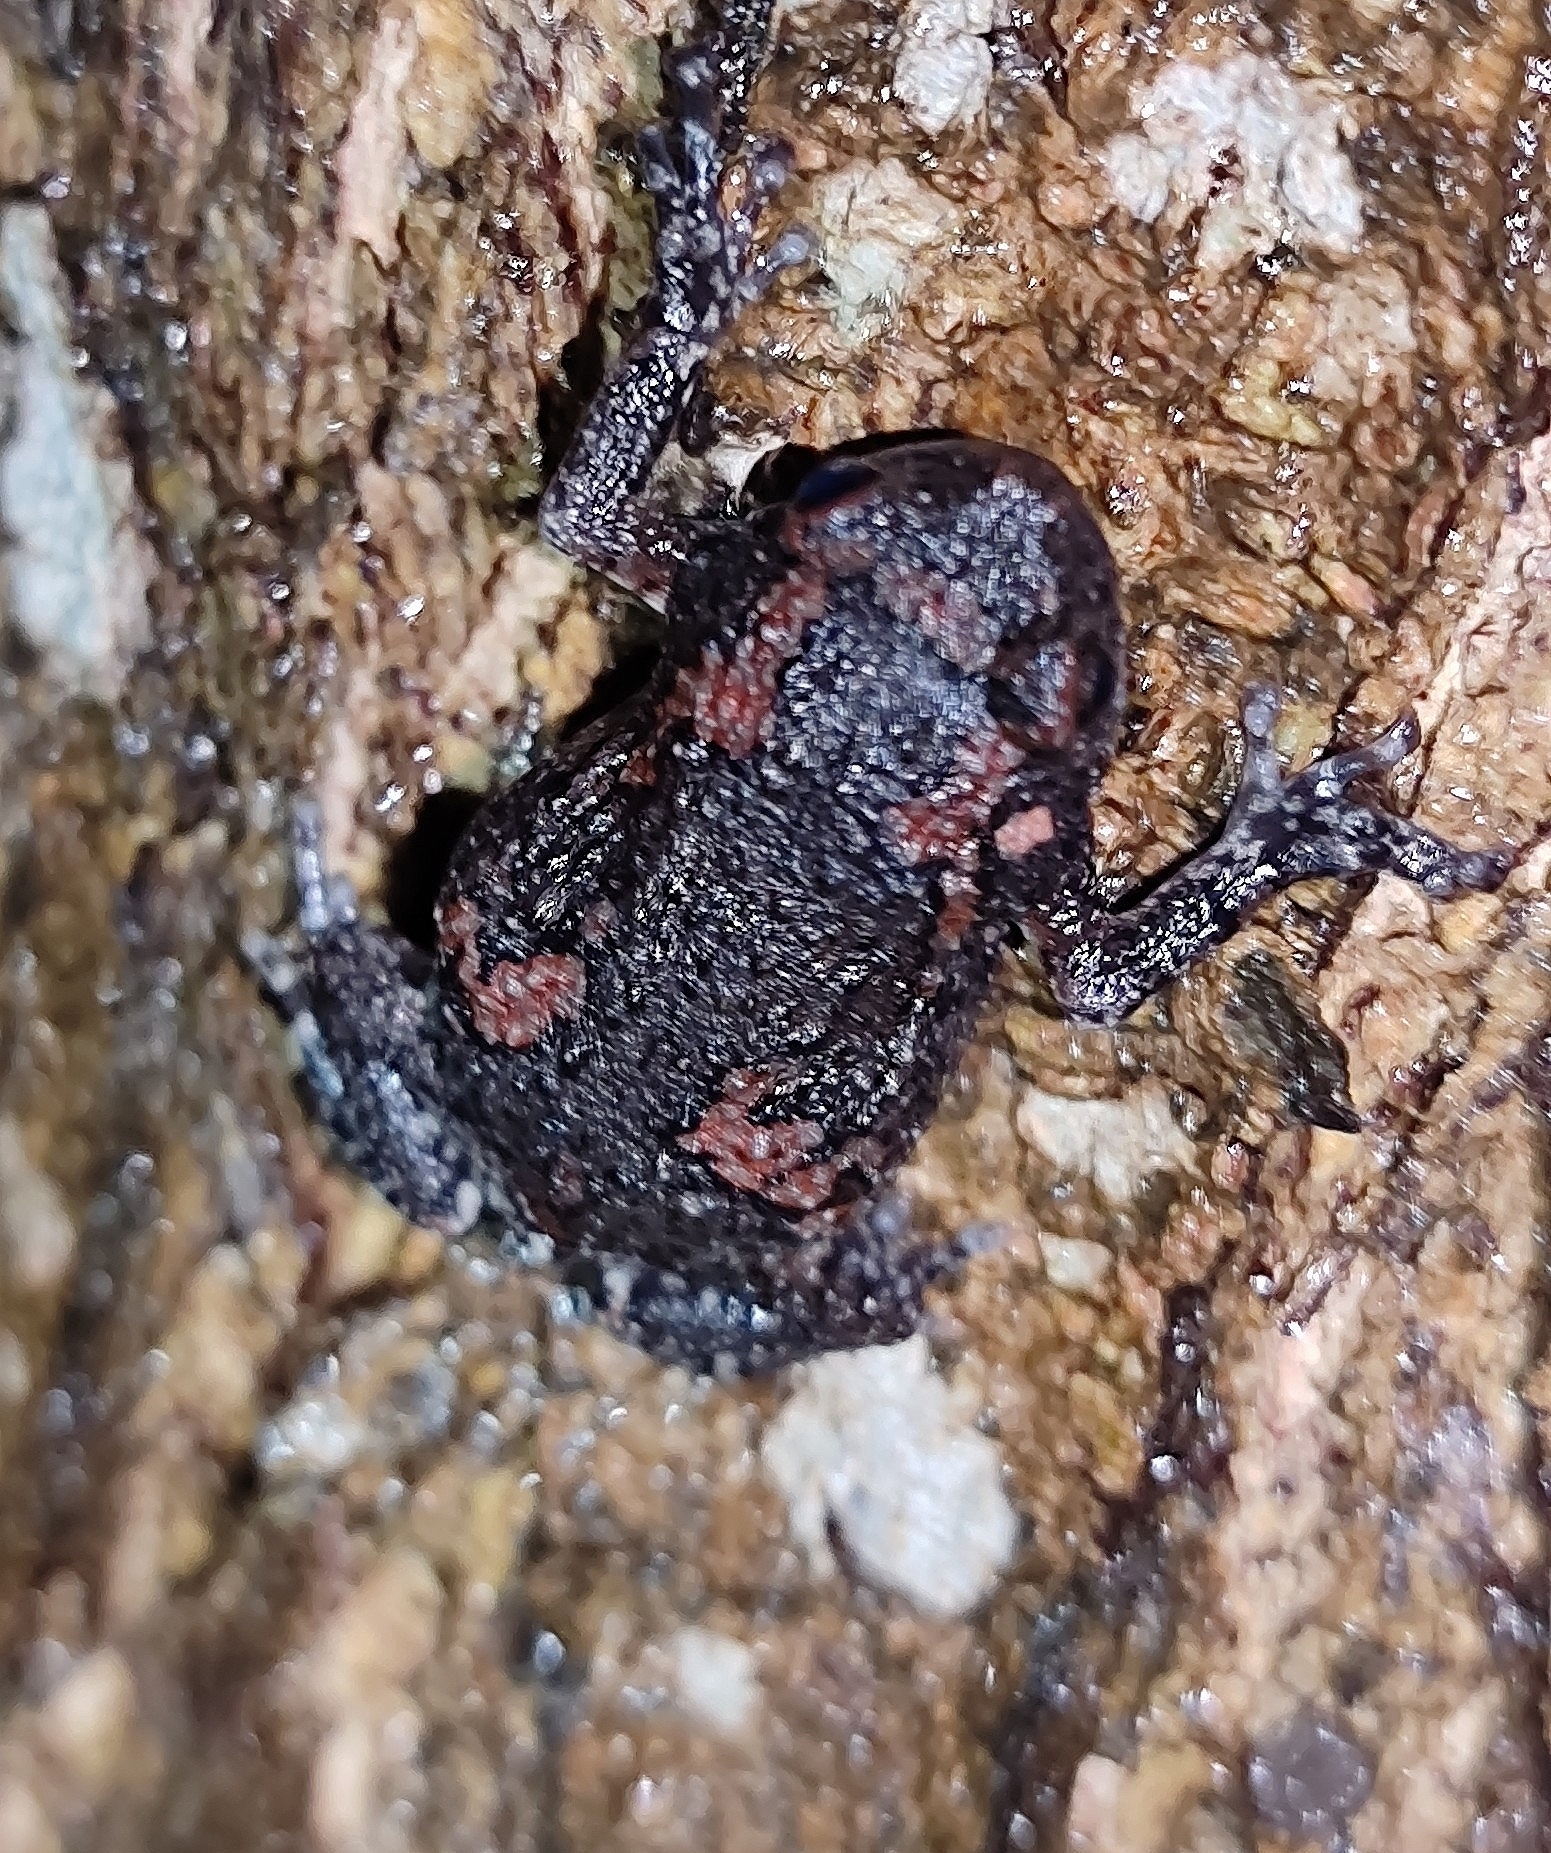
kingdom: Animalia
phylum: Chordata
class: Amphibia
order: Anura
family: Microhylidae
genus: Uperodon
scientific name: Uperodon taprobanicus
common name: Ceylon kaloula
